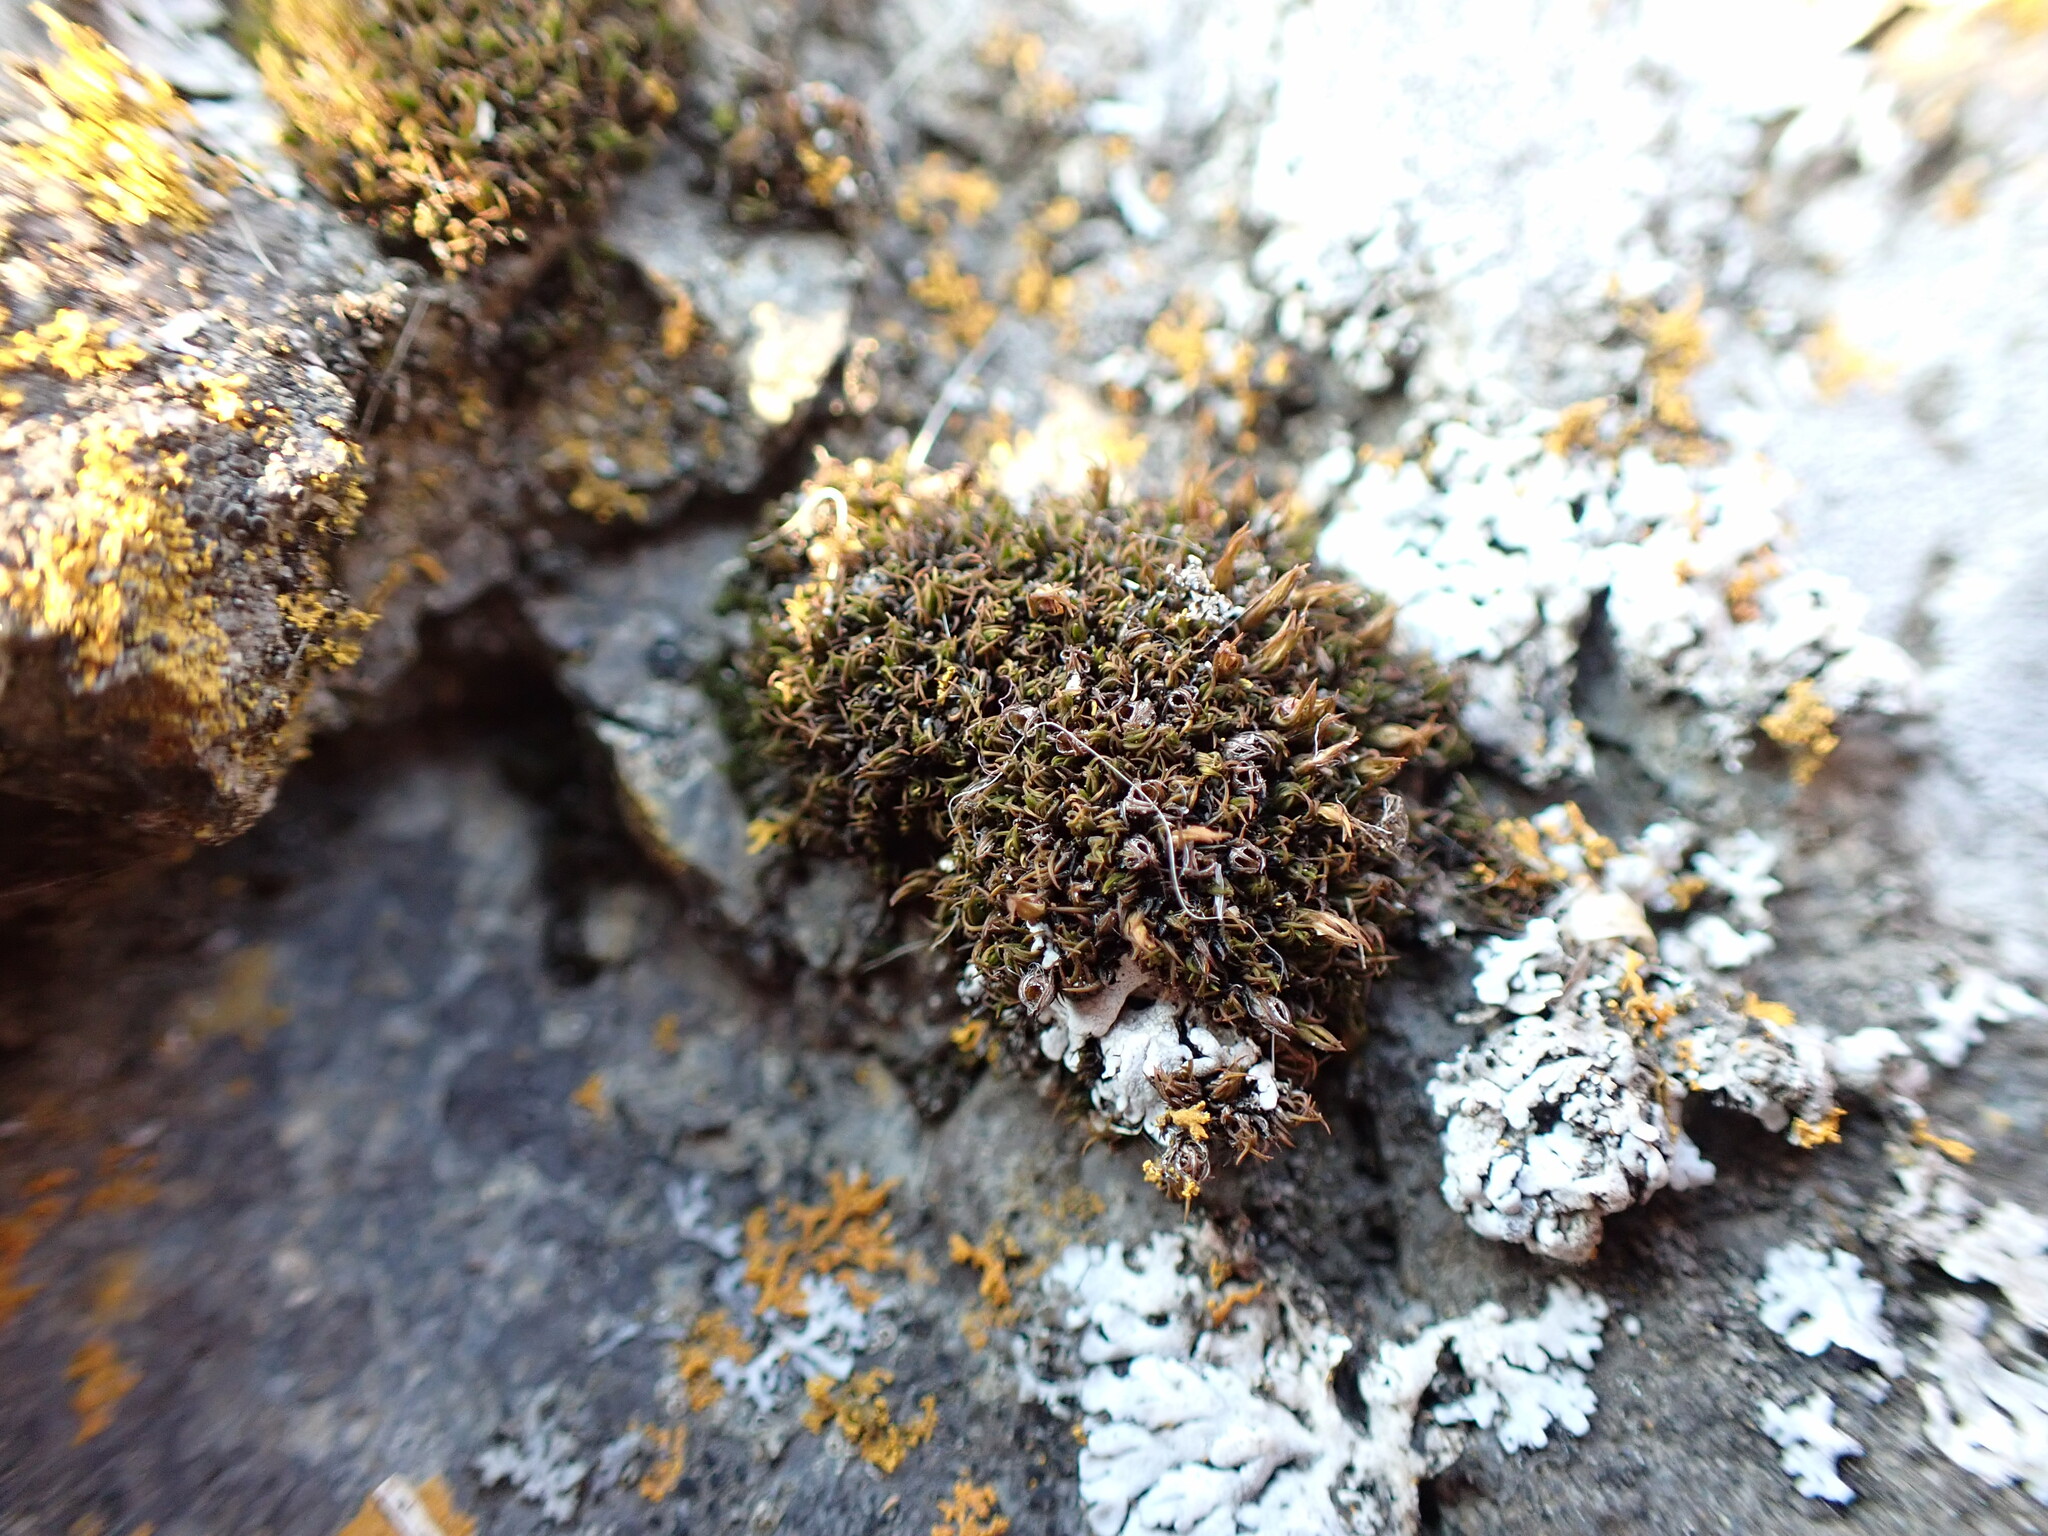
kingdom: Plantae
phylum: Bryophyta
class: Bryopsida
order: Grimmiales
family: Grimmiaceae
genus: Schistidium
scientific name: Schistidium maritimum
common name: Seaside bloom moss
